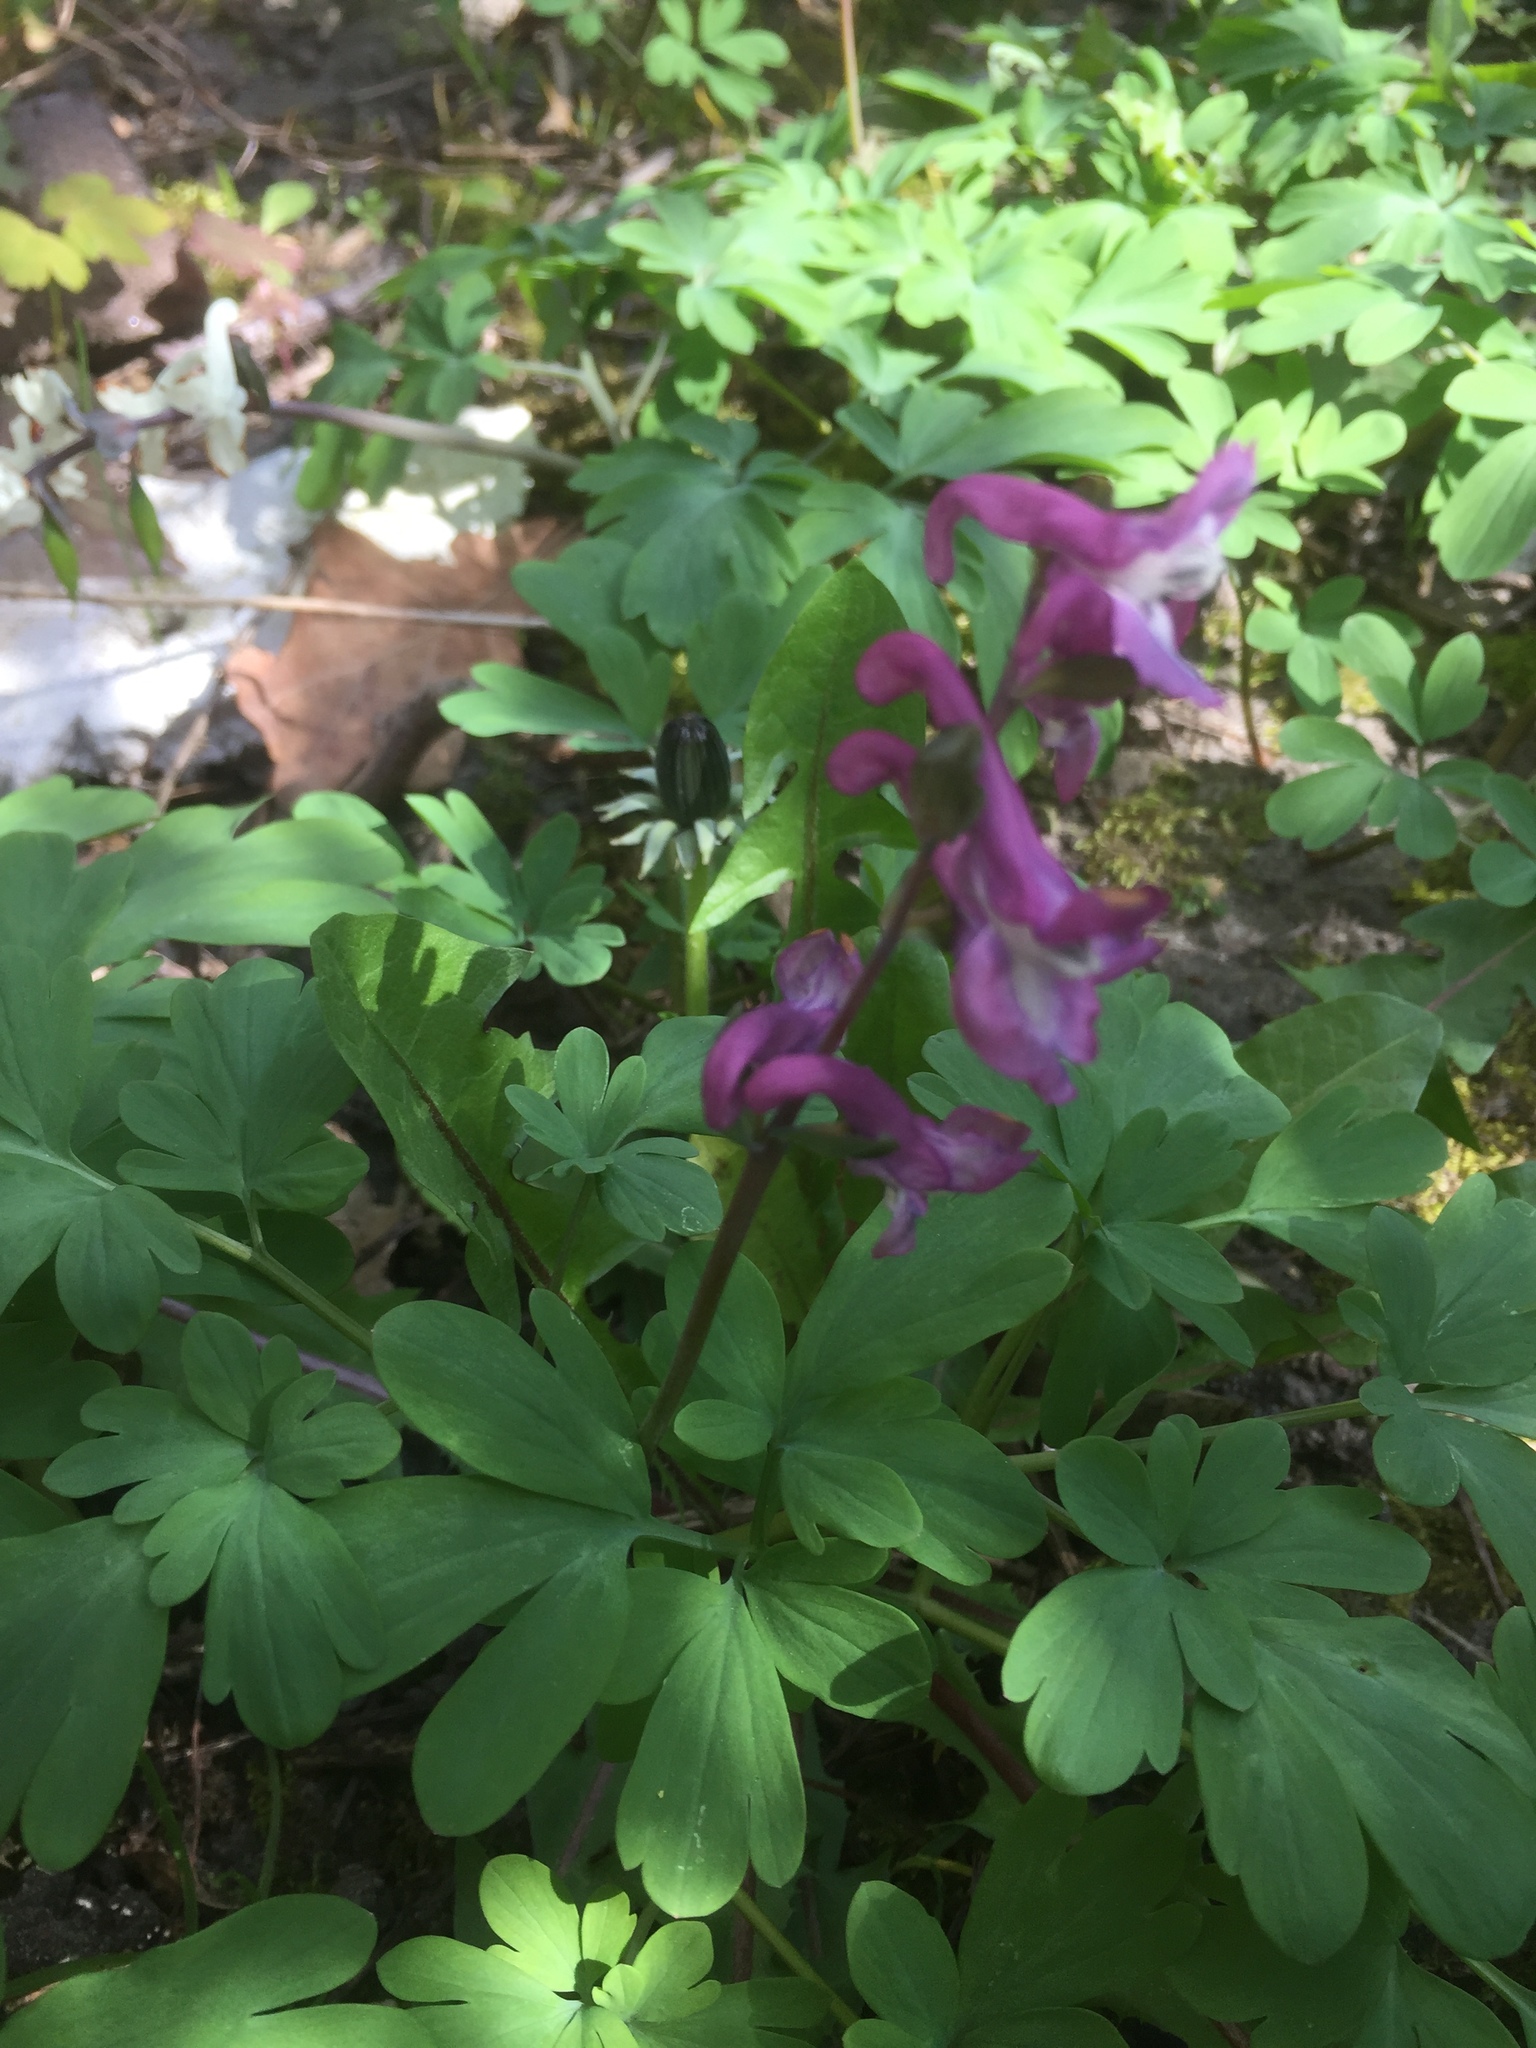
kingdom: Plantae
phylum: Tracheophyta
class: Magnoliopsida
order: Ranunculales
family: Papaveraceae
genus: Corydalis
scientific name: Corydalis cava
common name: Hollowroot
